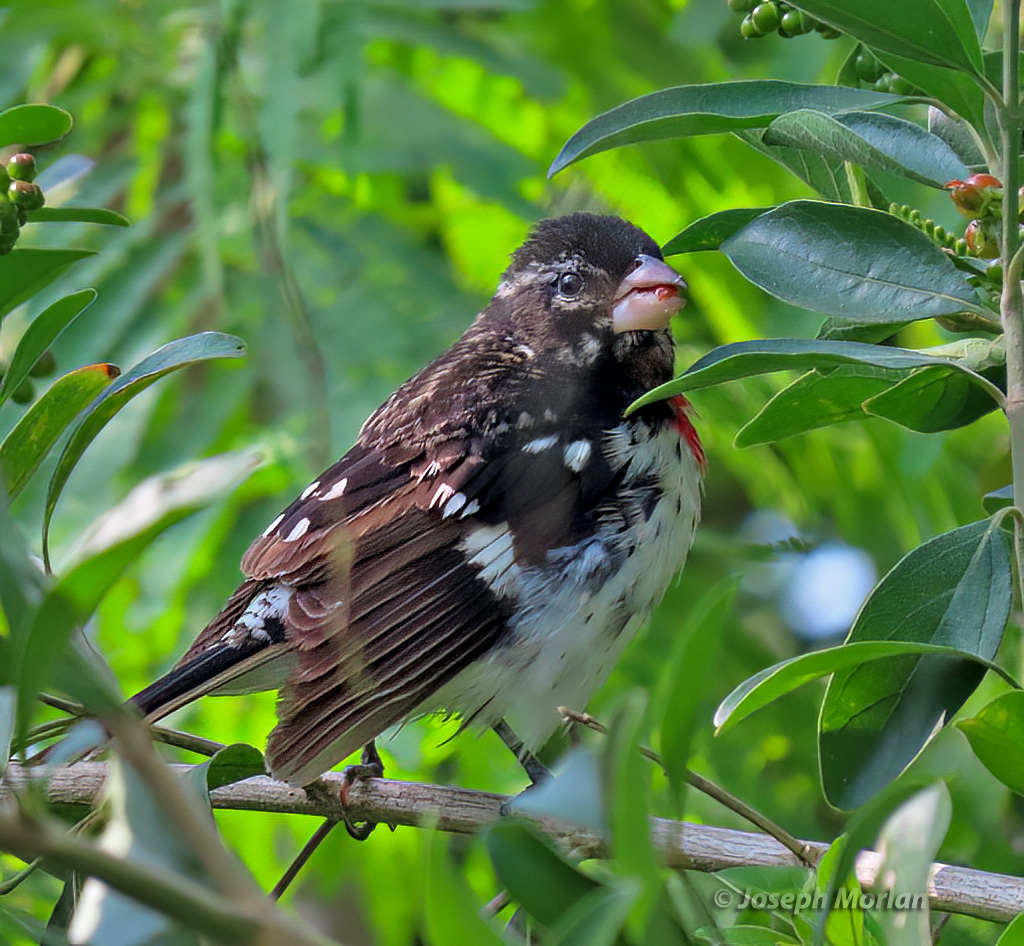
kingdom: Animalia
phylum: Chordata
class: Aves
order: Passeriformes
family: Cardinalidae
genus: Pheucticus
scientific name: Pheucticus ludovicianus
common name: Rose-breasted grosbeak
